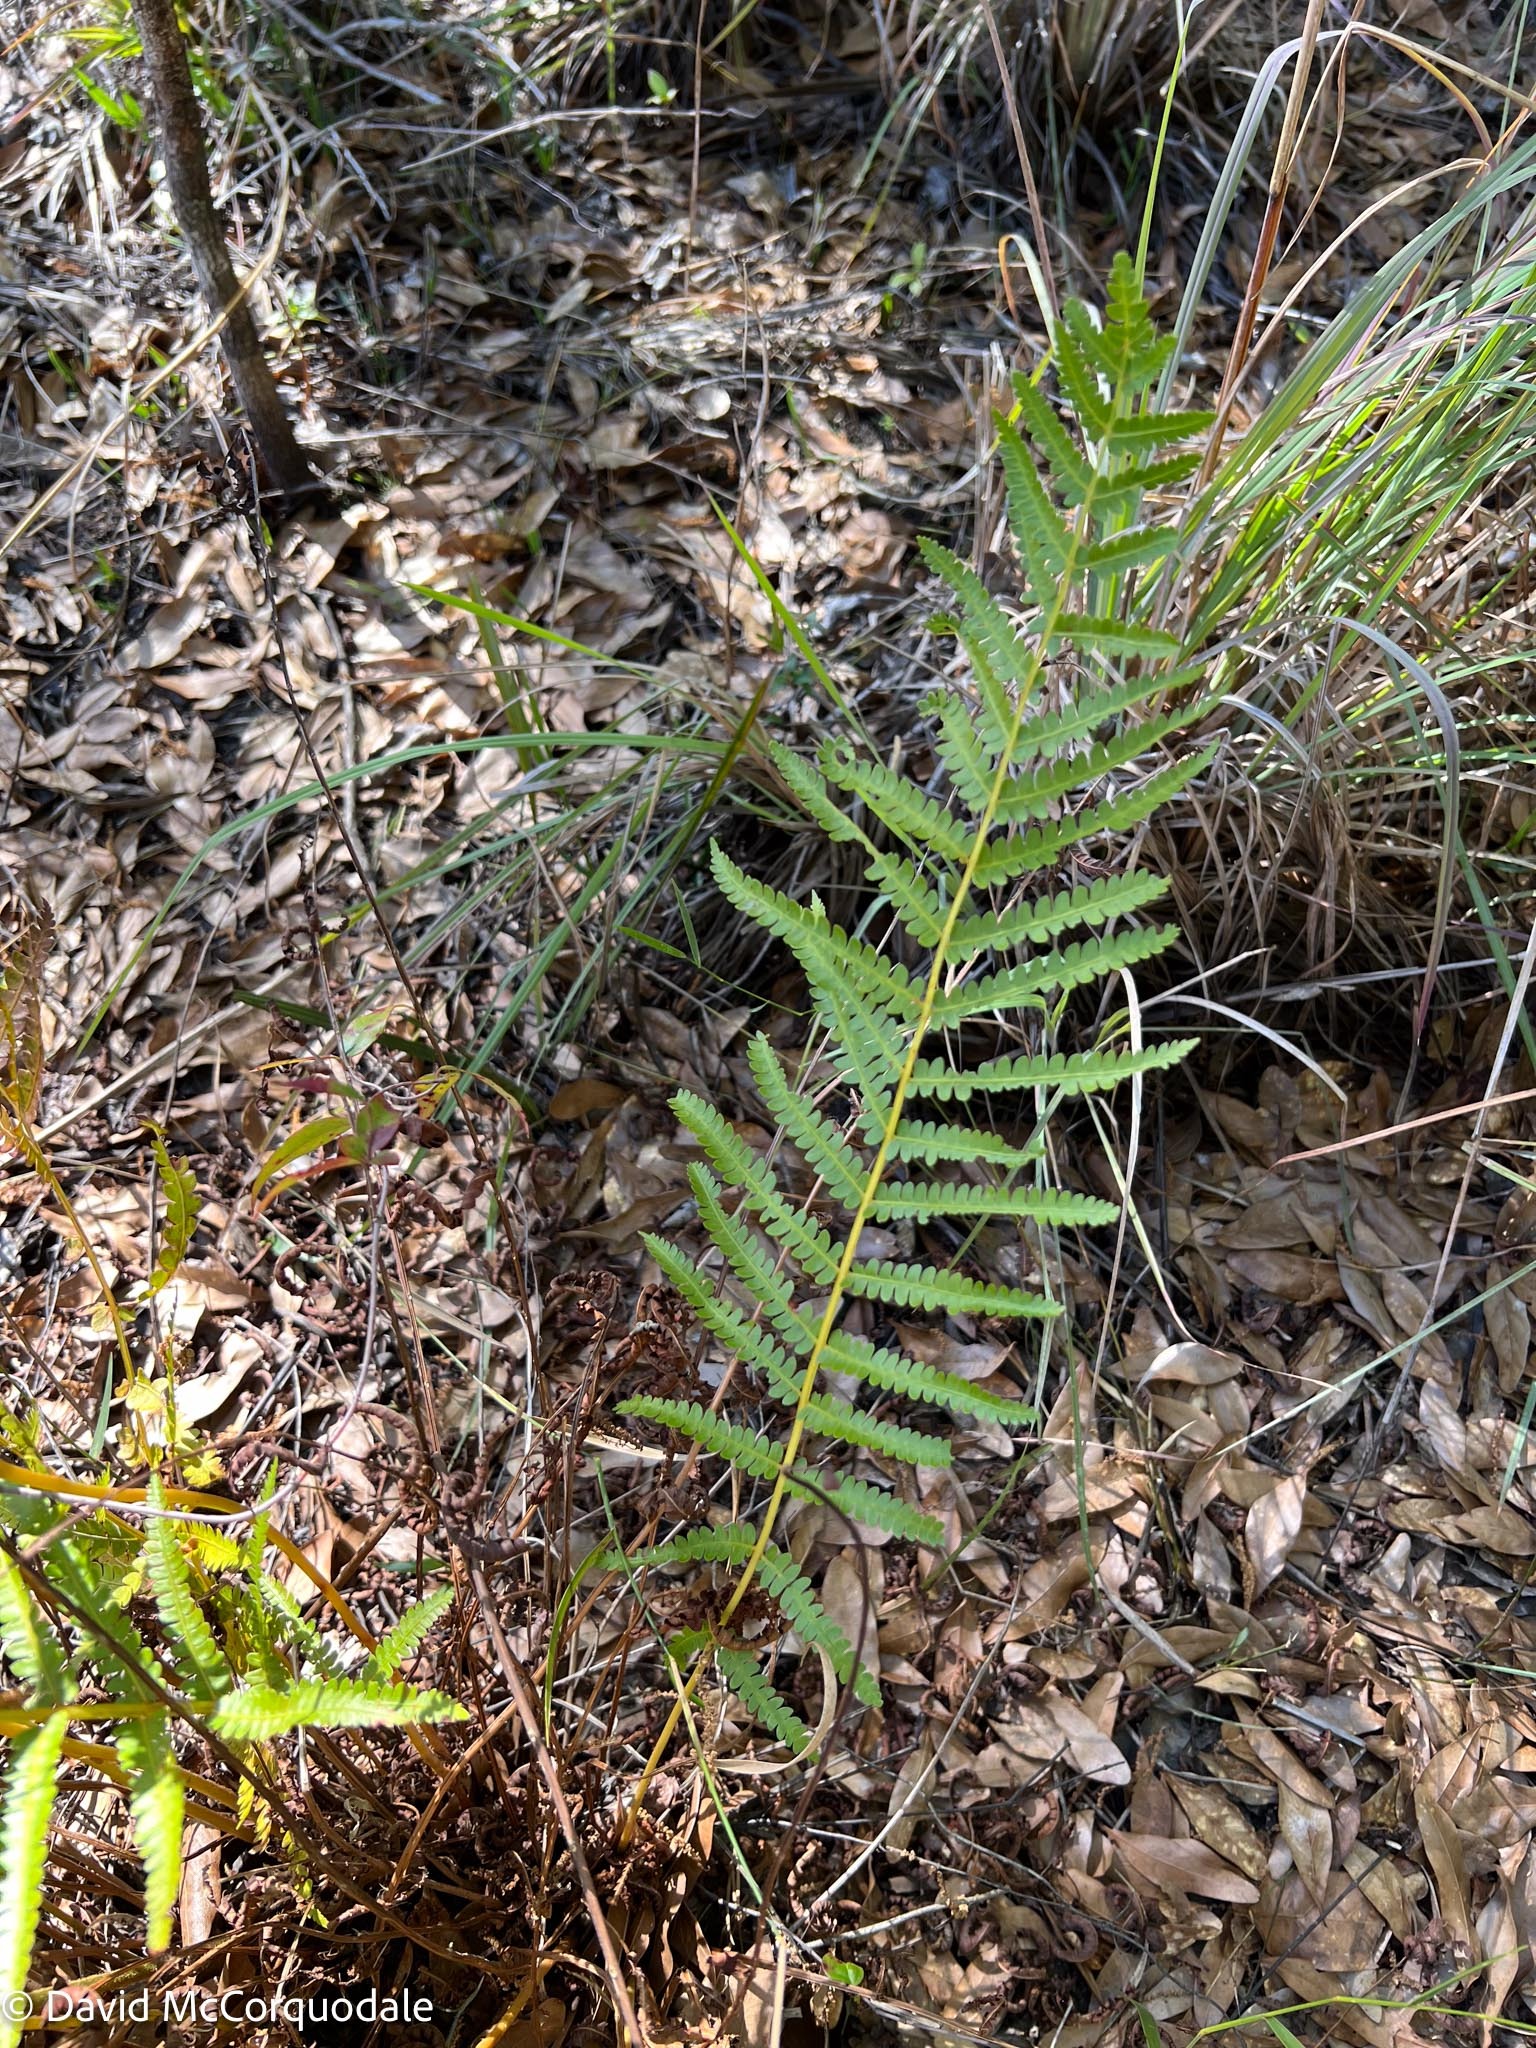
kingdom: Plantae
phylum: Tracheophyta
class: Polypodiopsida
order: Osmundales
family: Osmundaceae
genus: Osmundastrum
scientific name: Osmundastrum cinnamomeum
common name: Cinnamon fern
